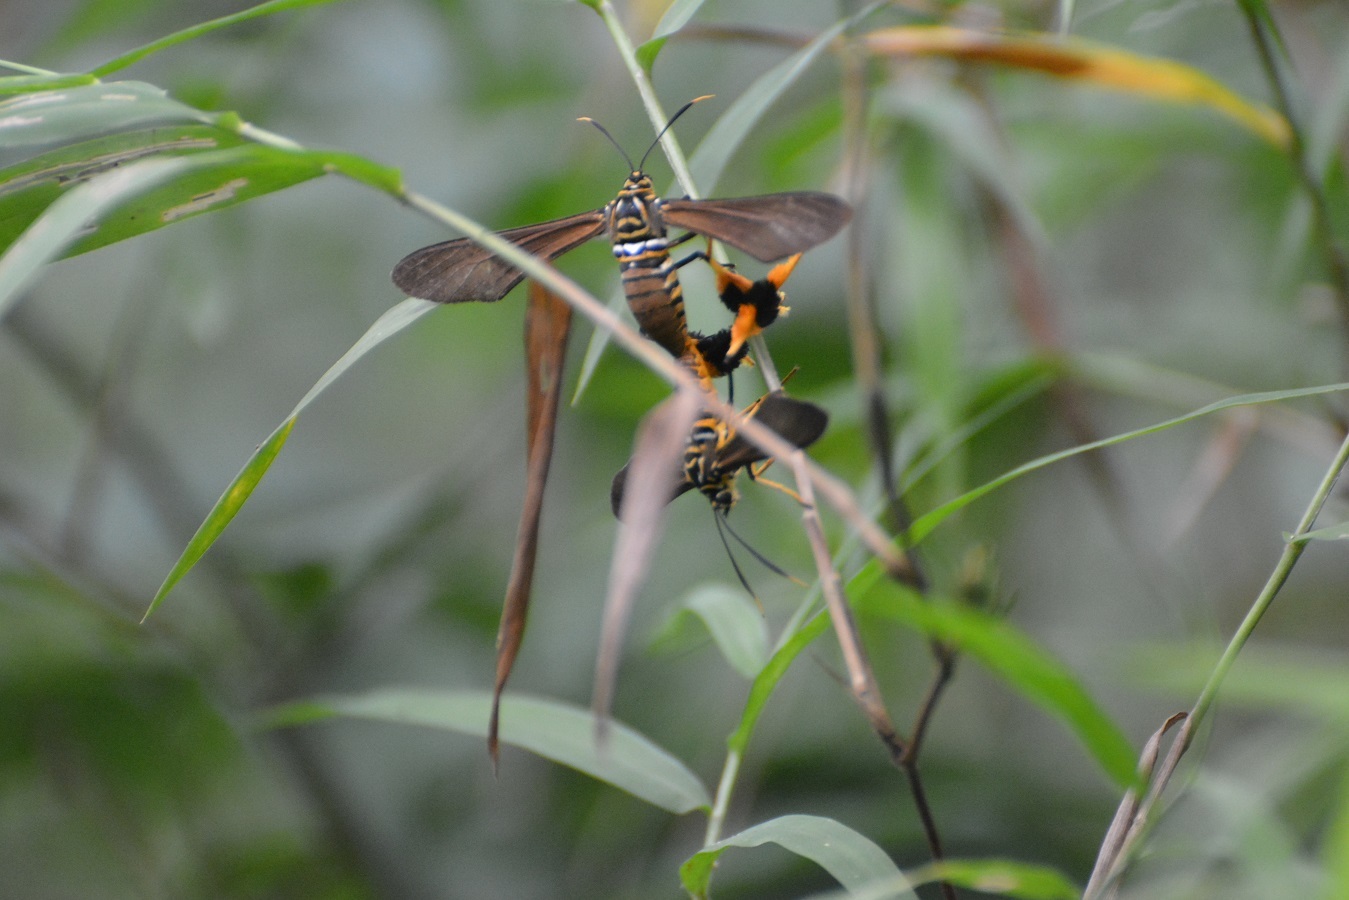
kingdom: Animalia
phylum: Arthropoda
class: Insecta
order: Lepidoptera
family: Erebidae
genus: Horama
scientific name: Horama panthalon
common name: Texas wasp moth
